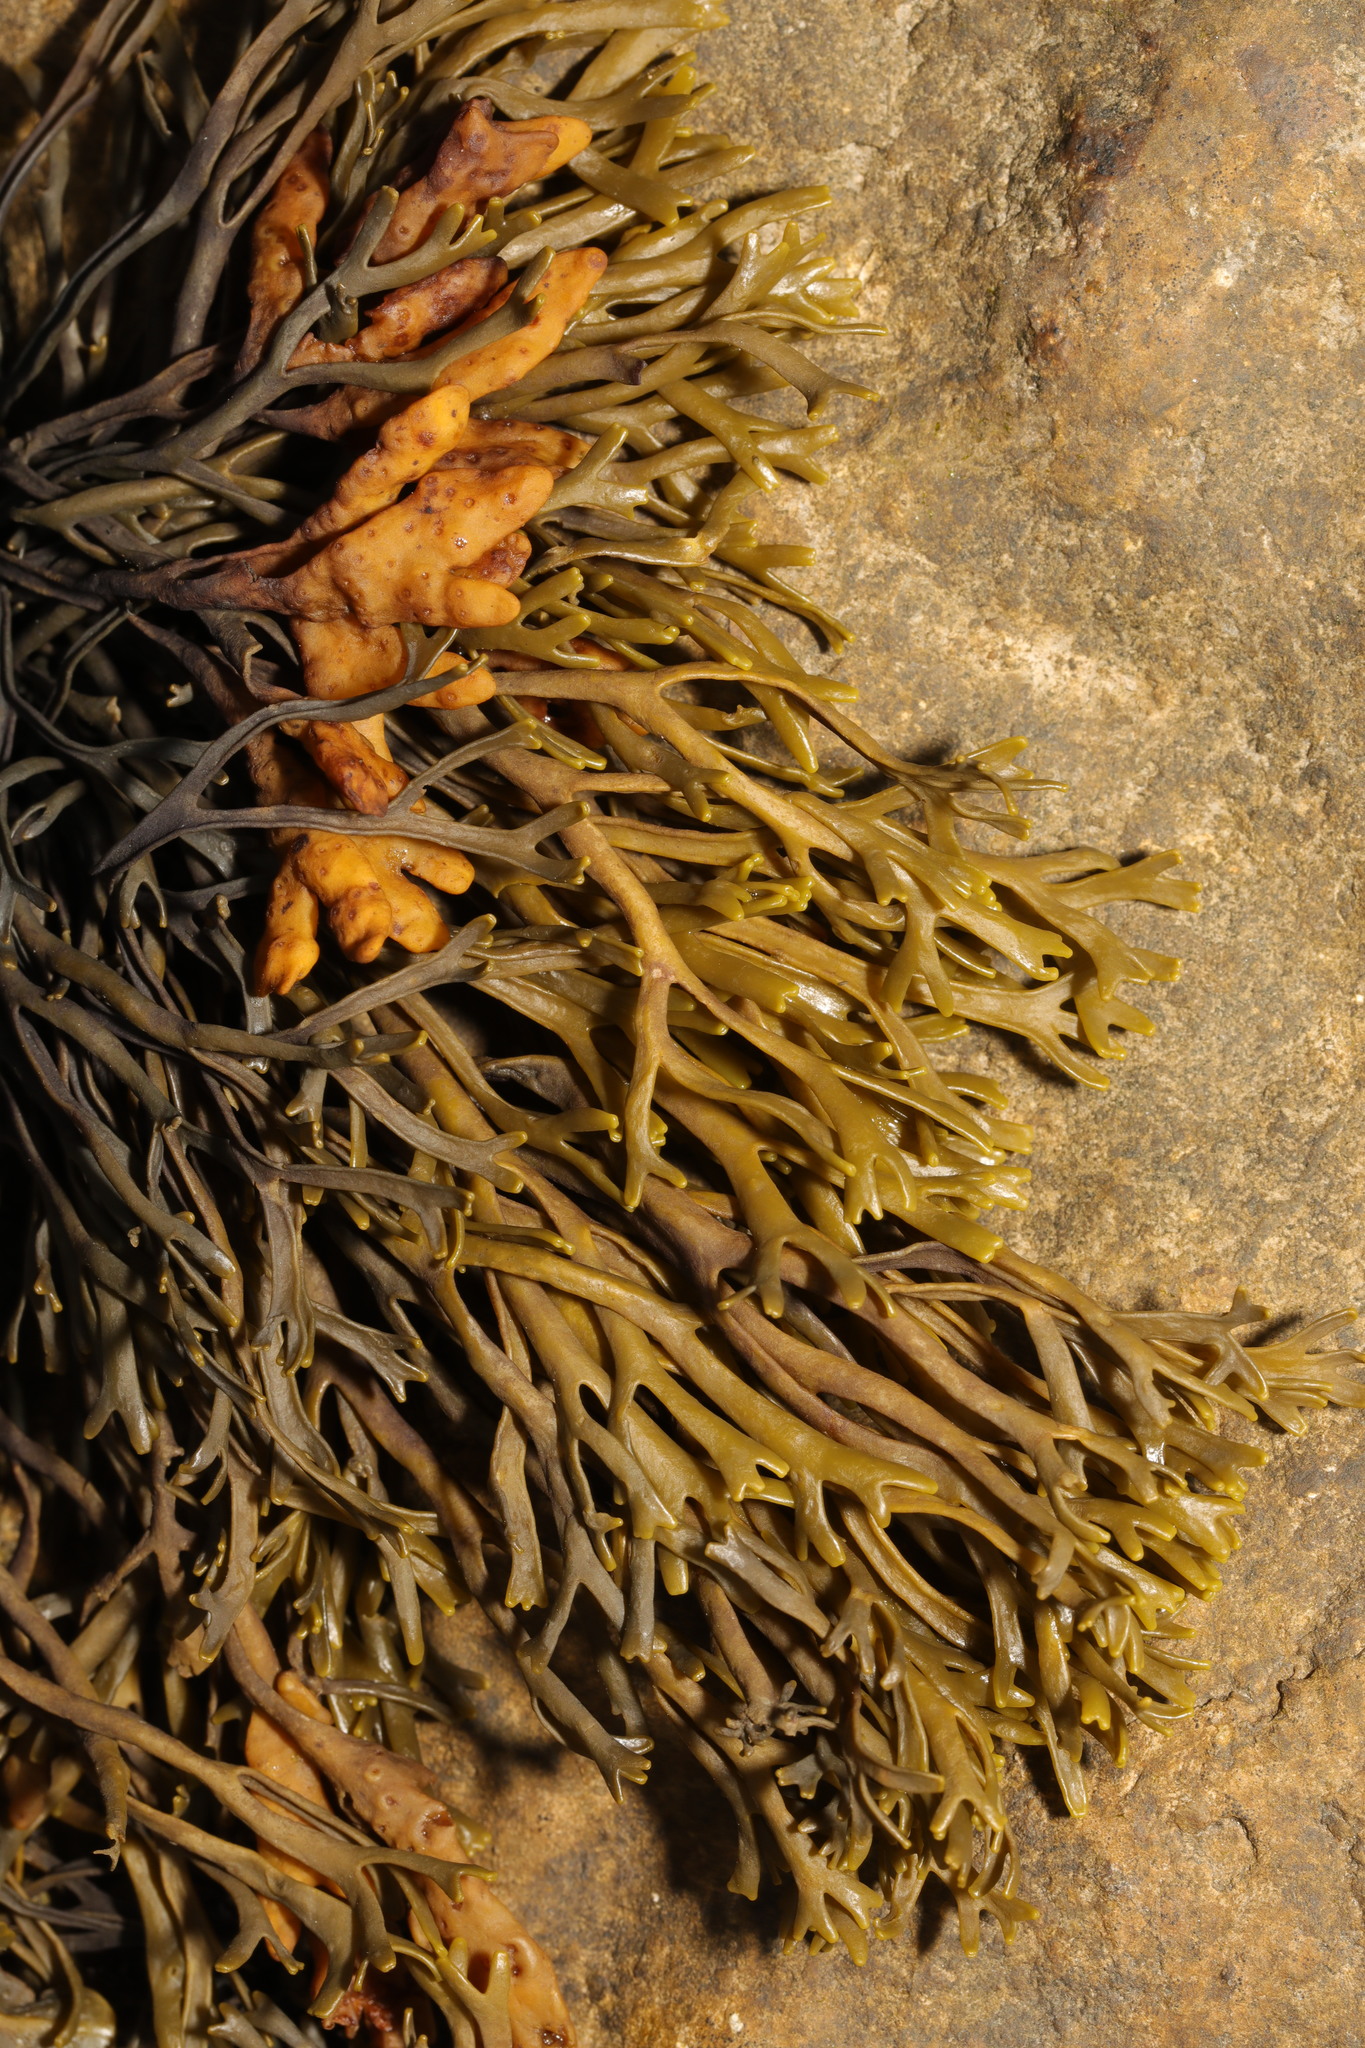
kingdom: Chromista
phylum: Ochrophyta
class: Phaeophyceae
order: Fucales
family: Fucaceae
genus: Pelvetia
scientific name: Pelvetia canaliculata
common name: Channelled wrack
